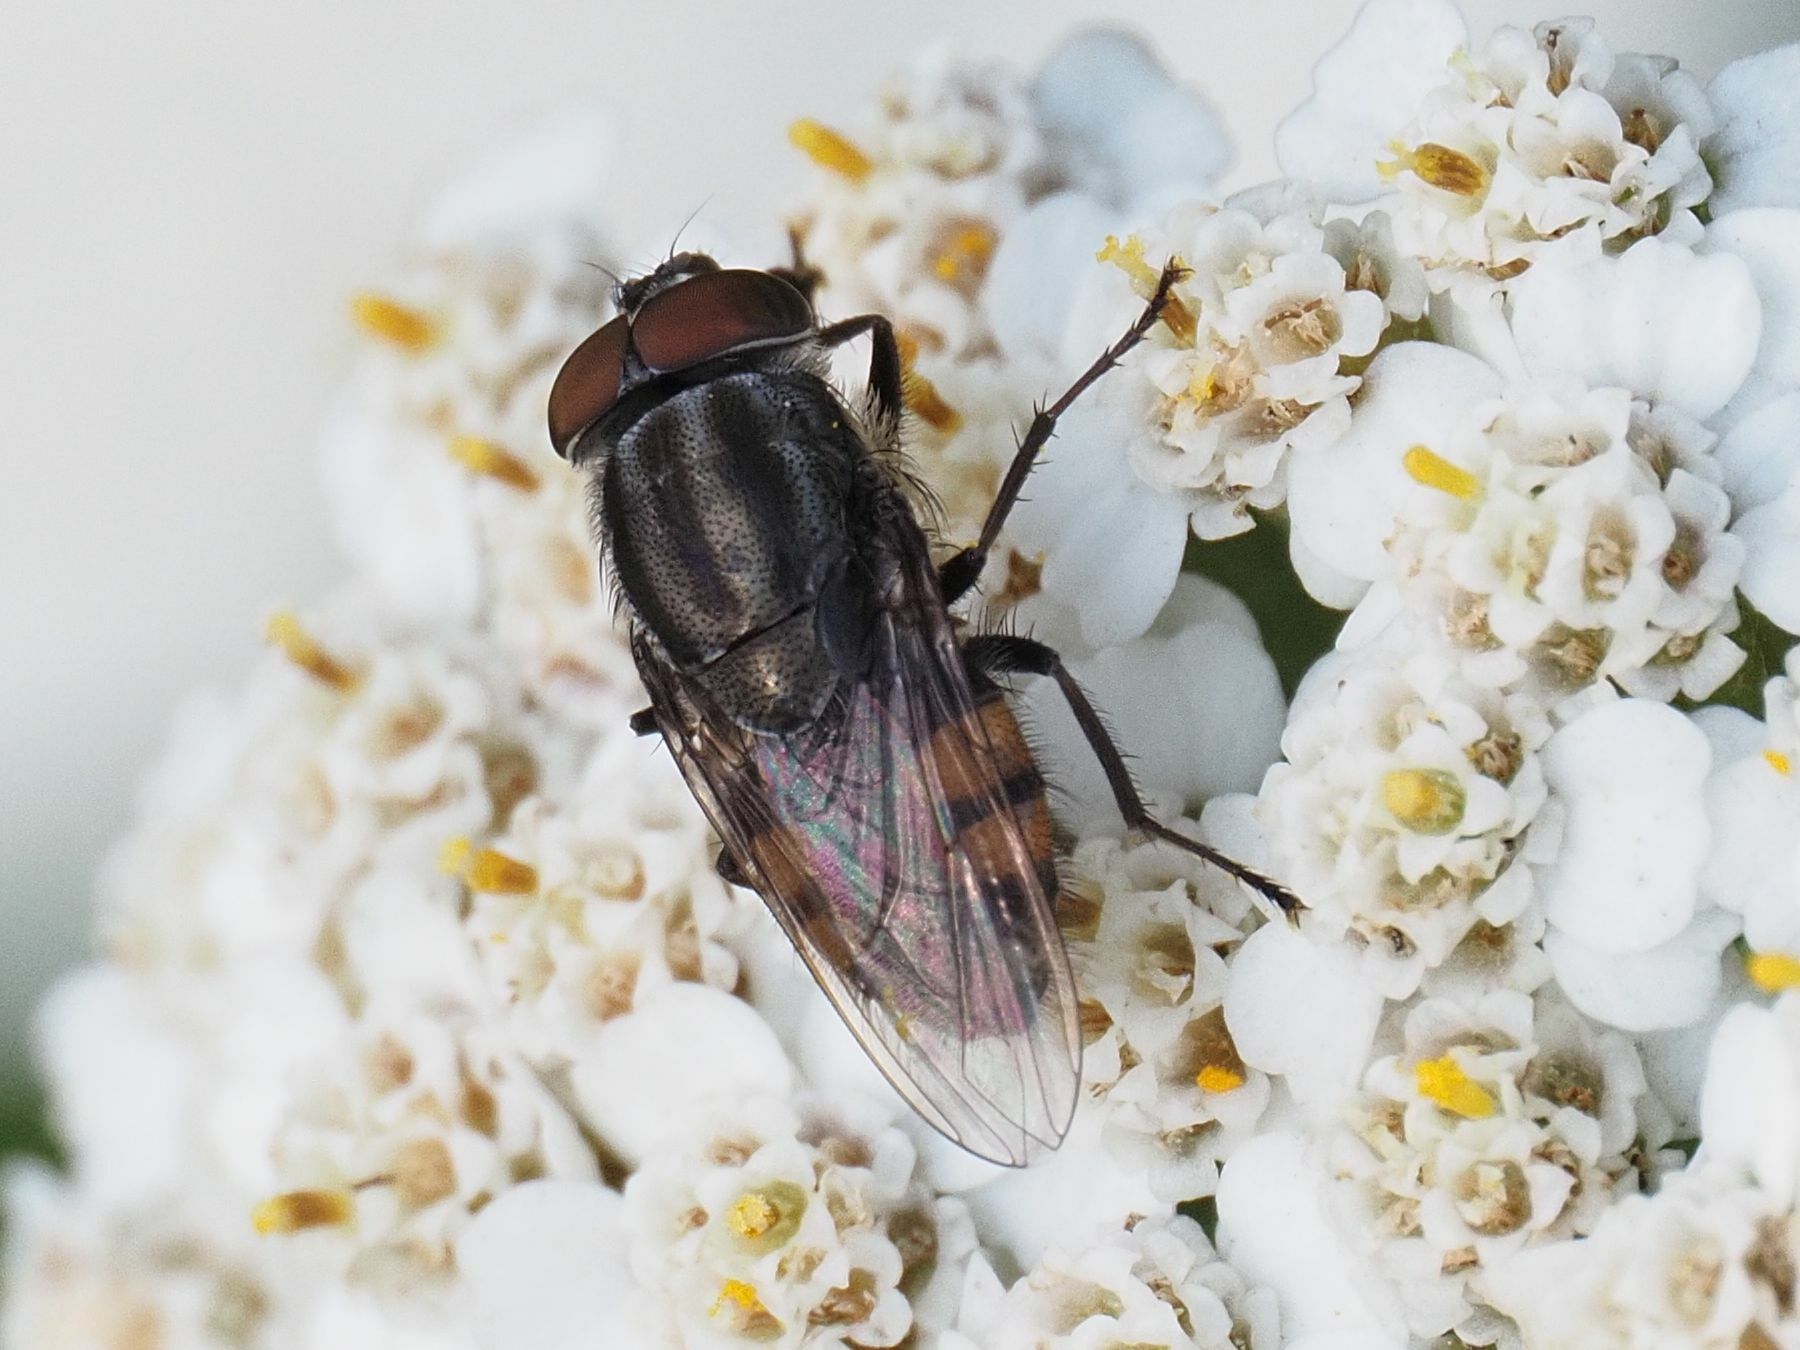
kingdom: Animalia
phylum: Arthropoda
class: Insecta
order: Diptera
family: Calliphoridae
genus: Stomorhina
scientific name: Stomorhina lunata
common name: Locust blowfly
